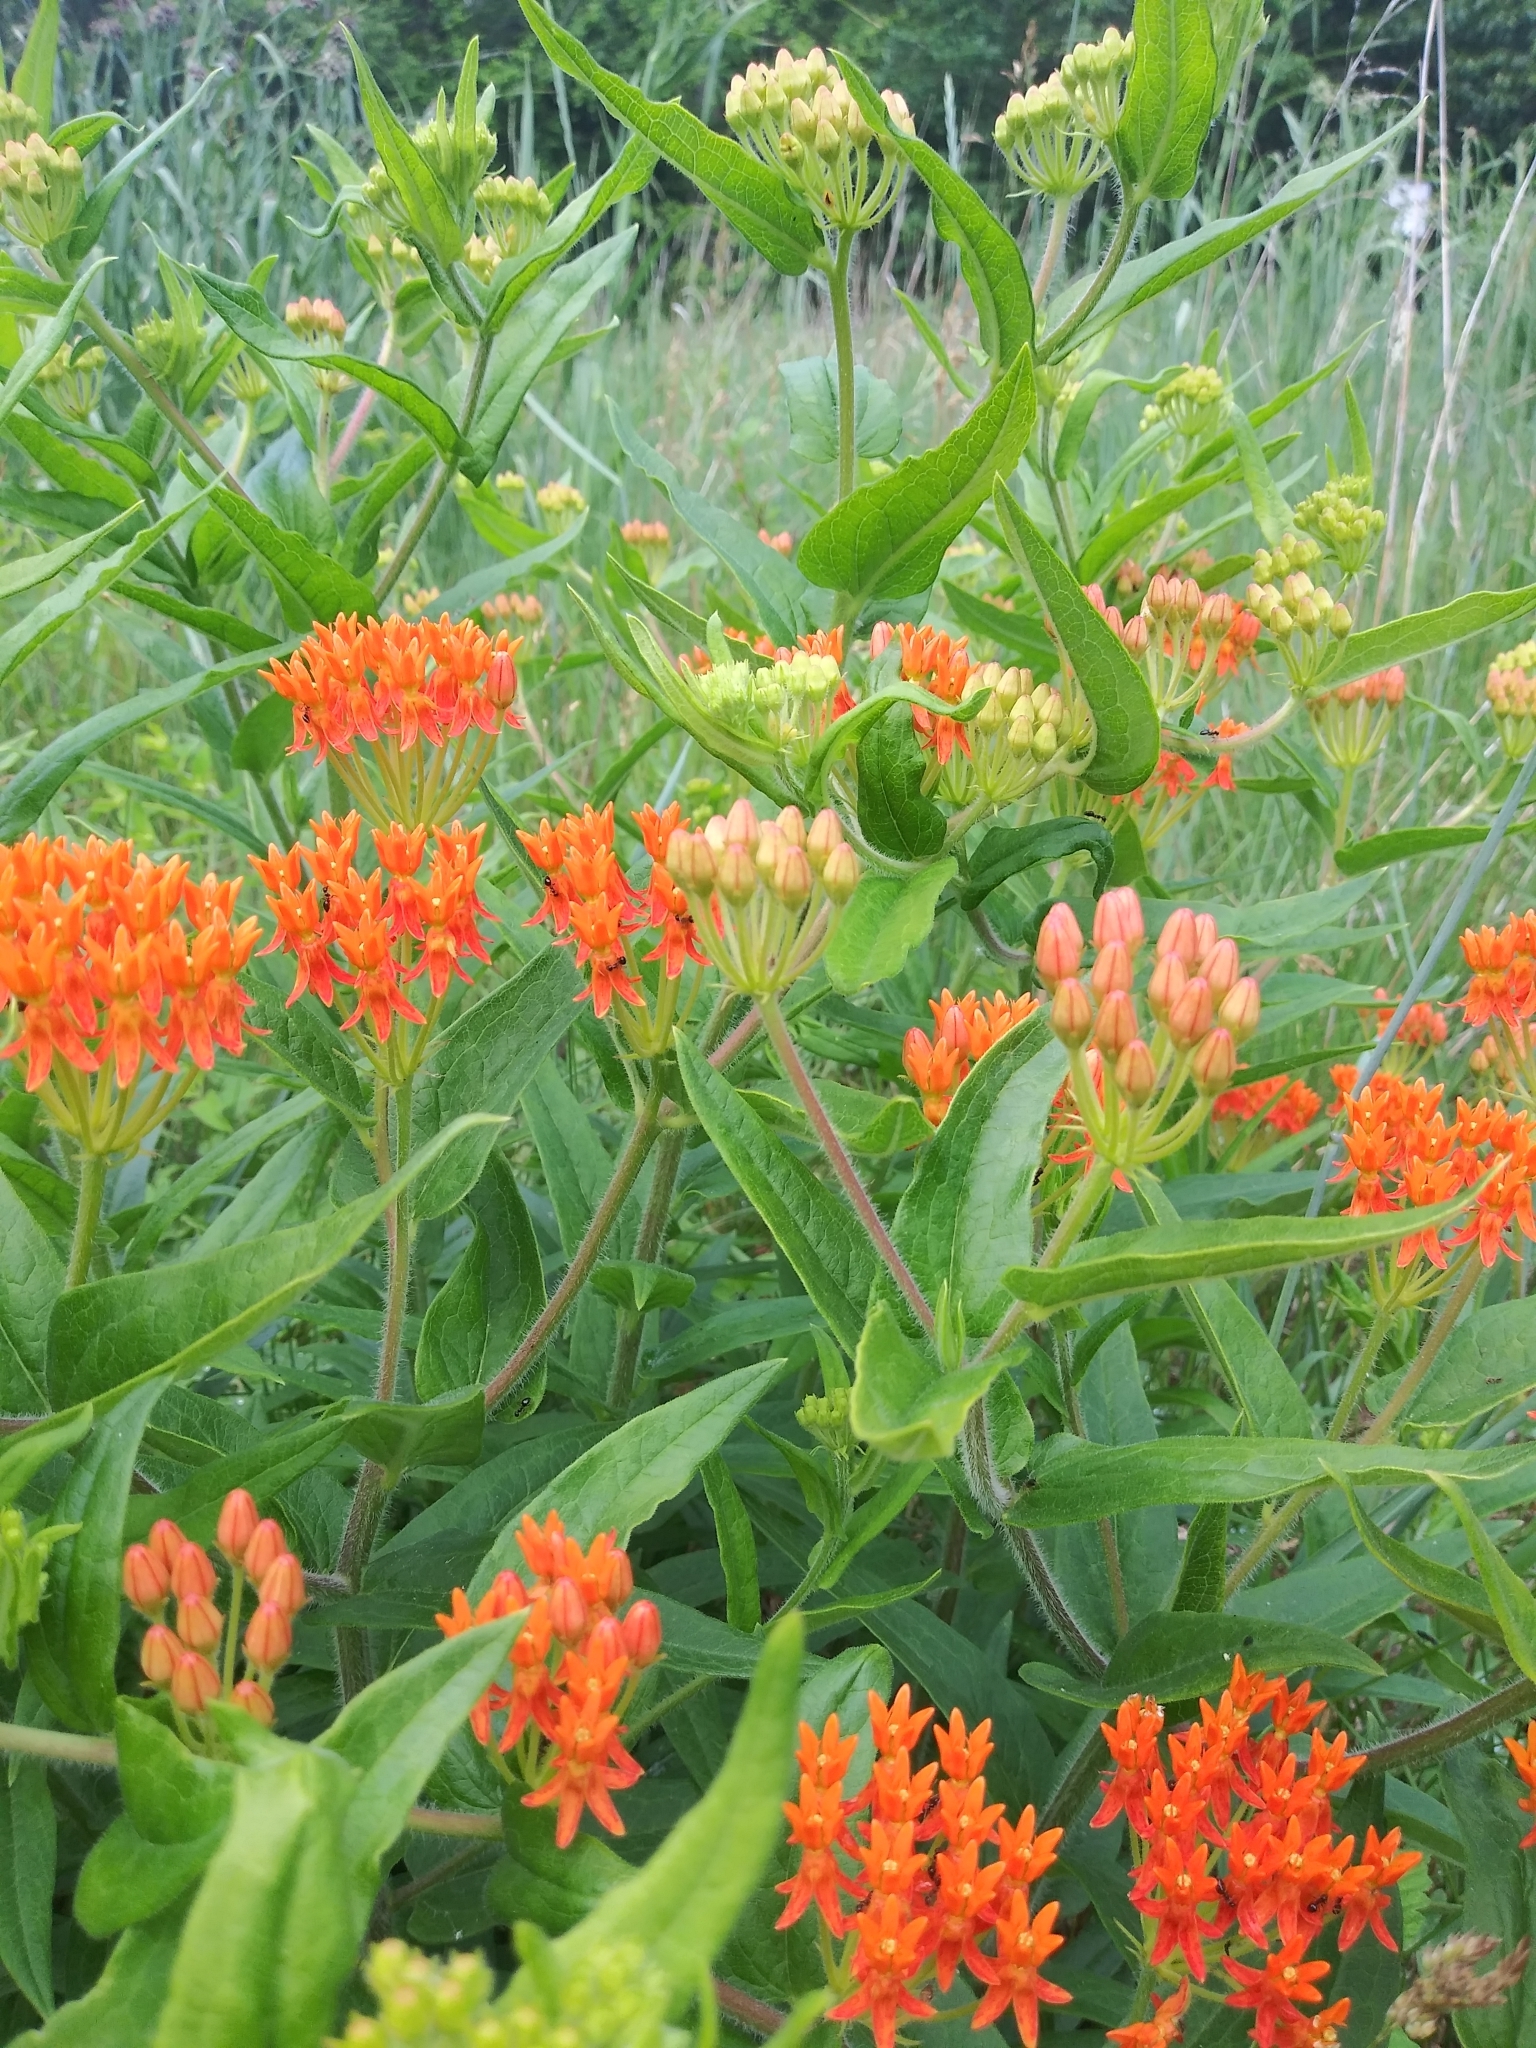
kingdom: Plantae
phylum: Tracheophyta
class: Magnoliopsida
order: Gentianales
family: Apocynaceae
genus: Asclepias
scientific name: Asclepias tuberosa
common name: Butterfly milkweed
